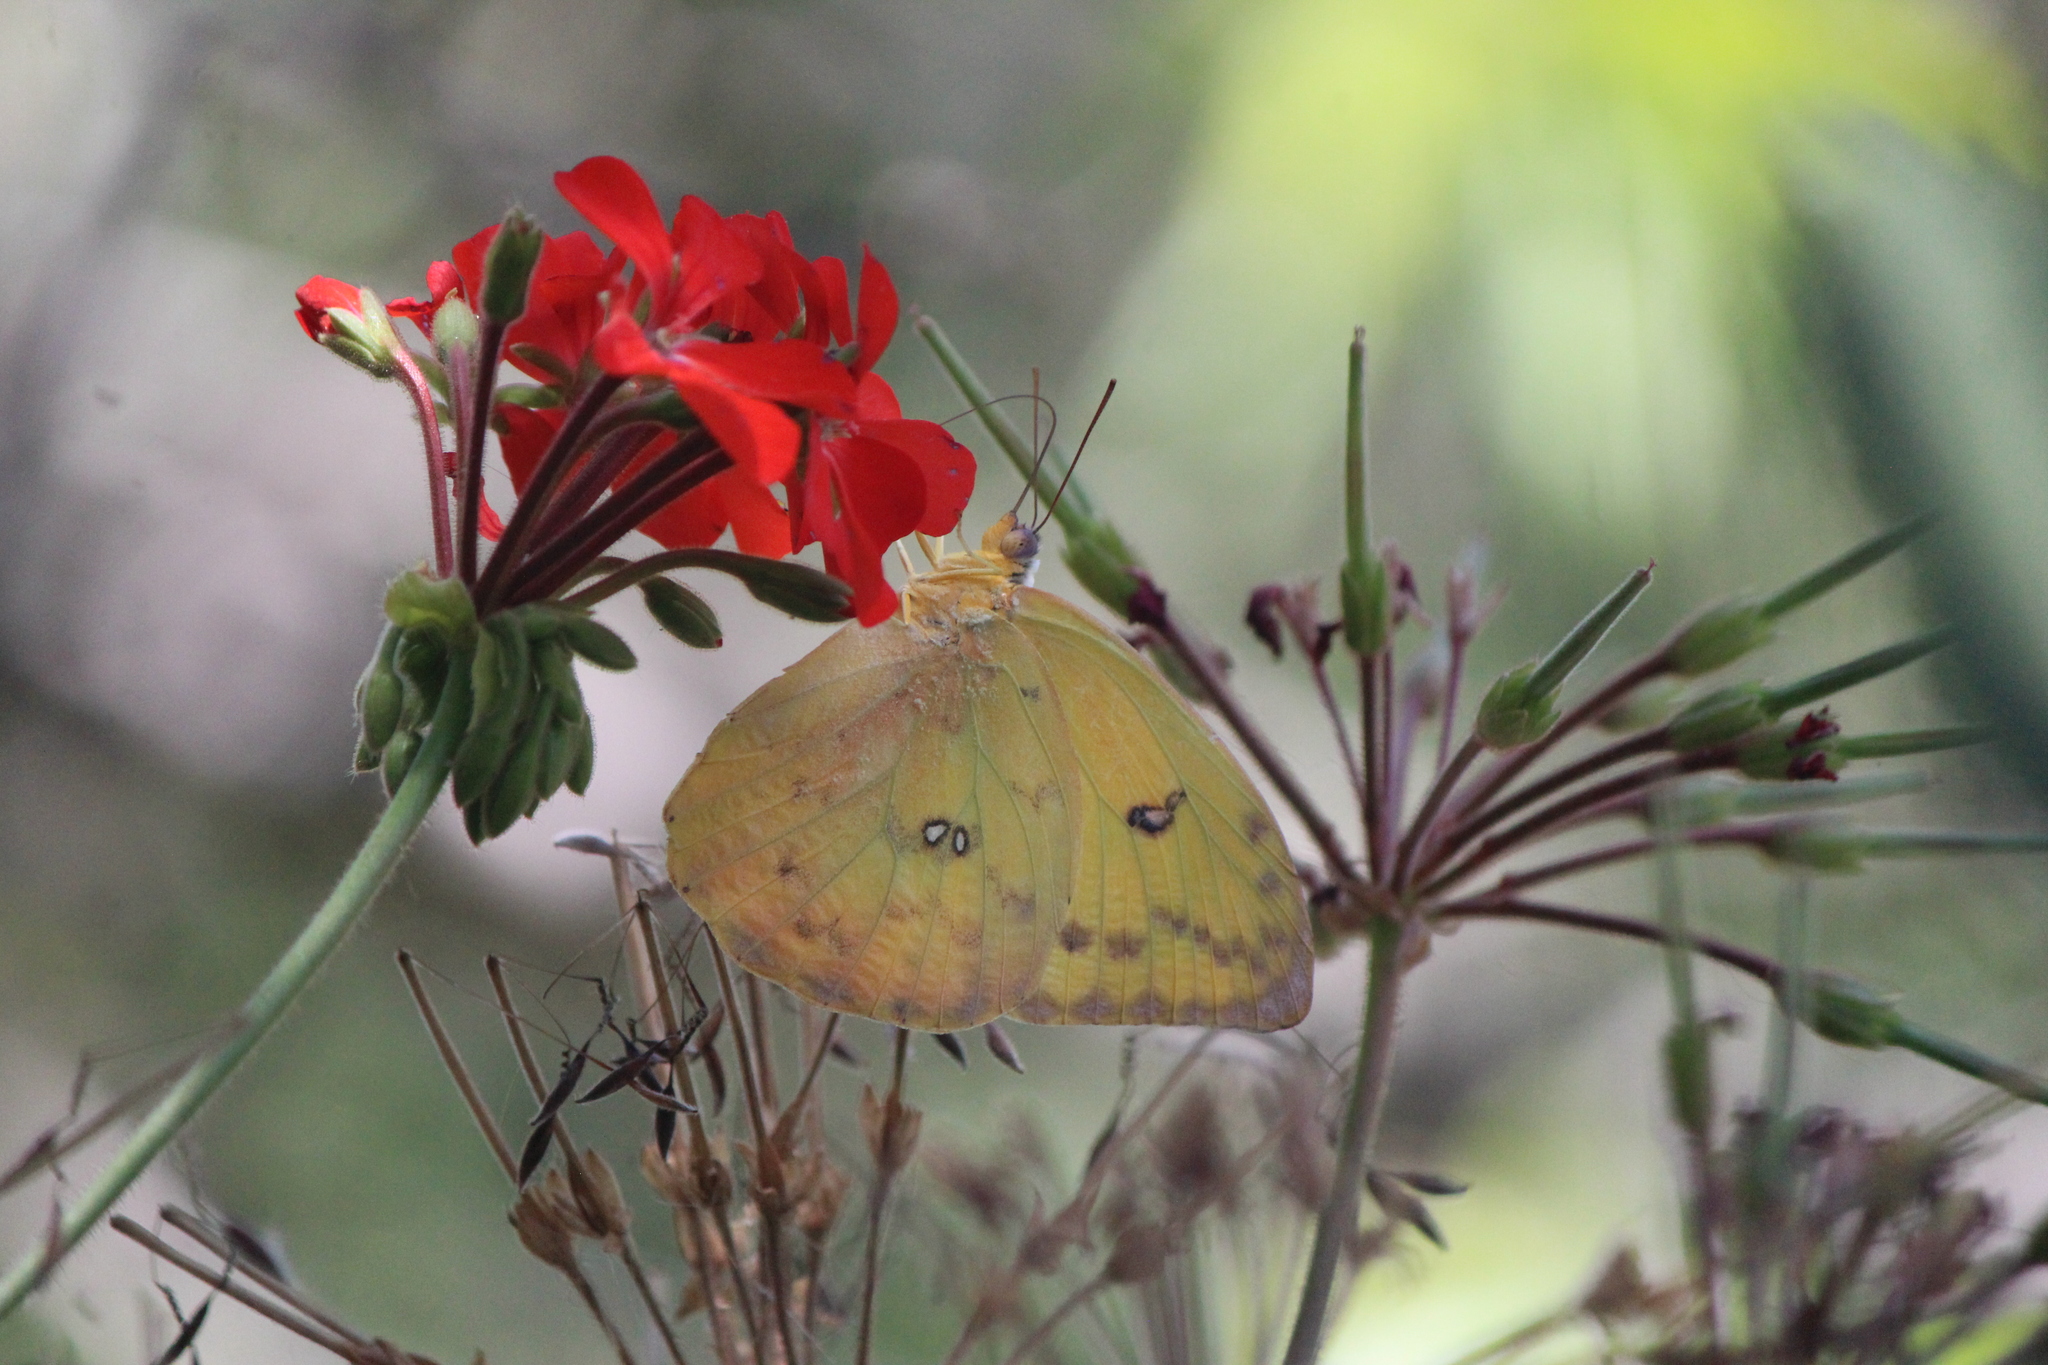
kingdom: Animalia
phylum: Arthropoda
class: Insecta
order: Lepidoptera
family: Pieridae
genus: Phoebis
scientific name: Phoebis philea
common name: Orange-barred giant sulphur
